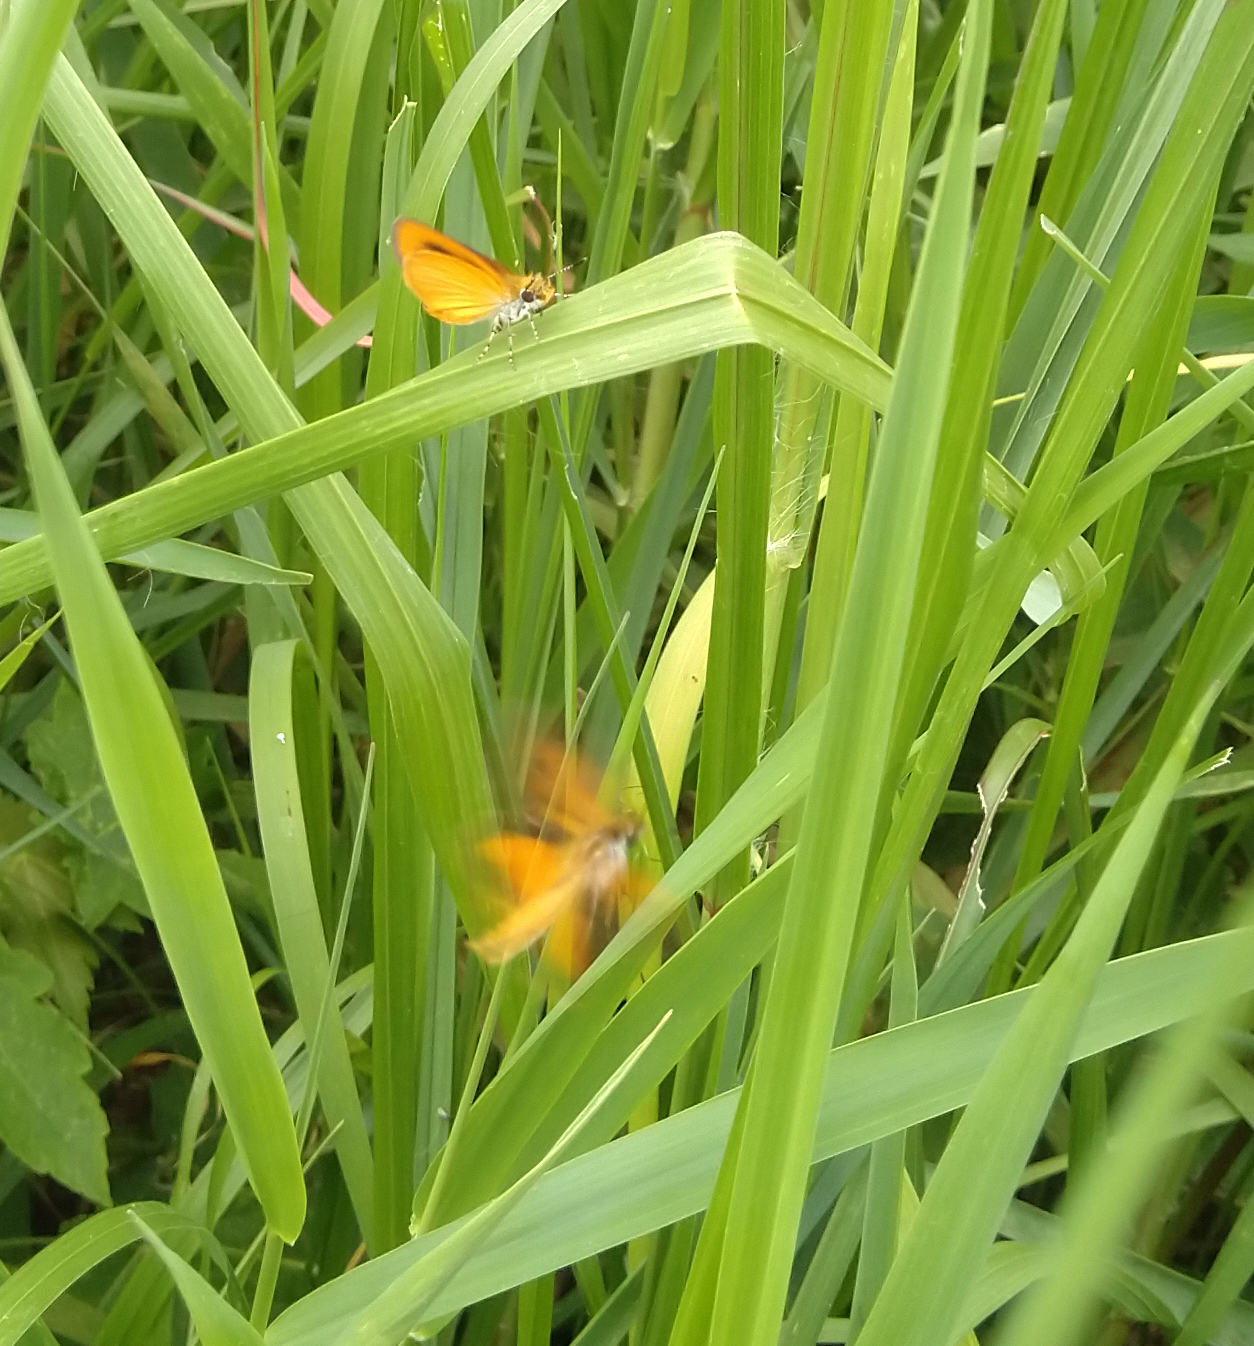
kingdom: Animalia
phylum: Arthropoda
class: Insecta
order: Lepidoptera
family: Hesperiidae
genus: Ancyloxypha
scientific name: Ancyloxypha numitor
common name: Least skipper
